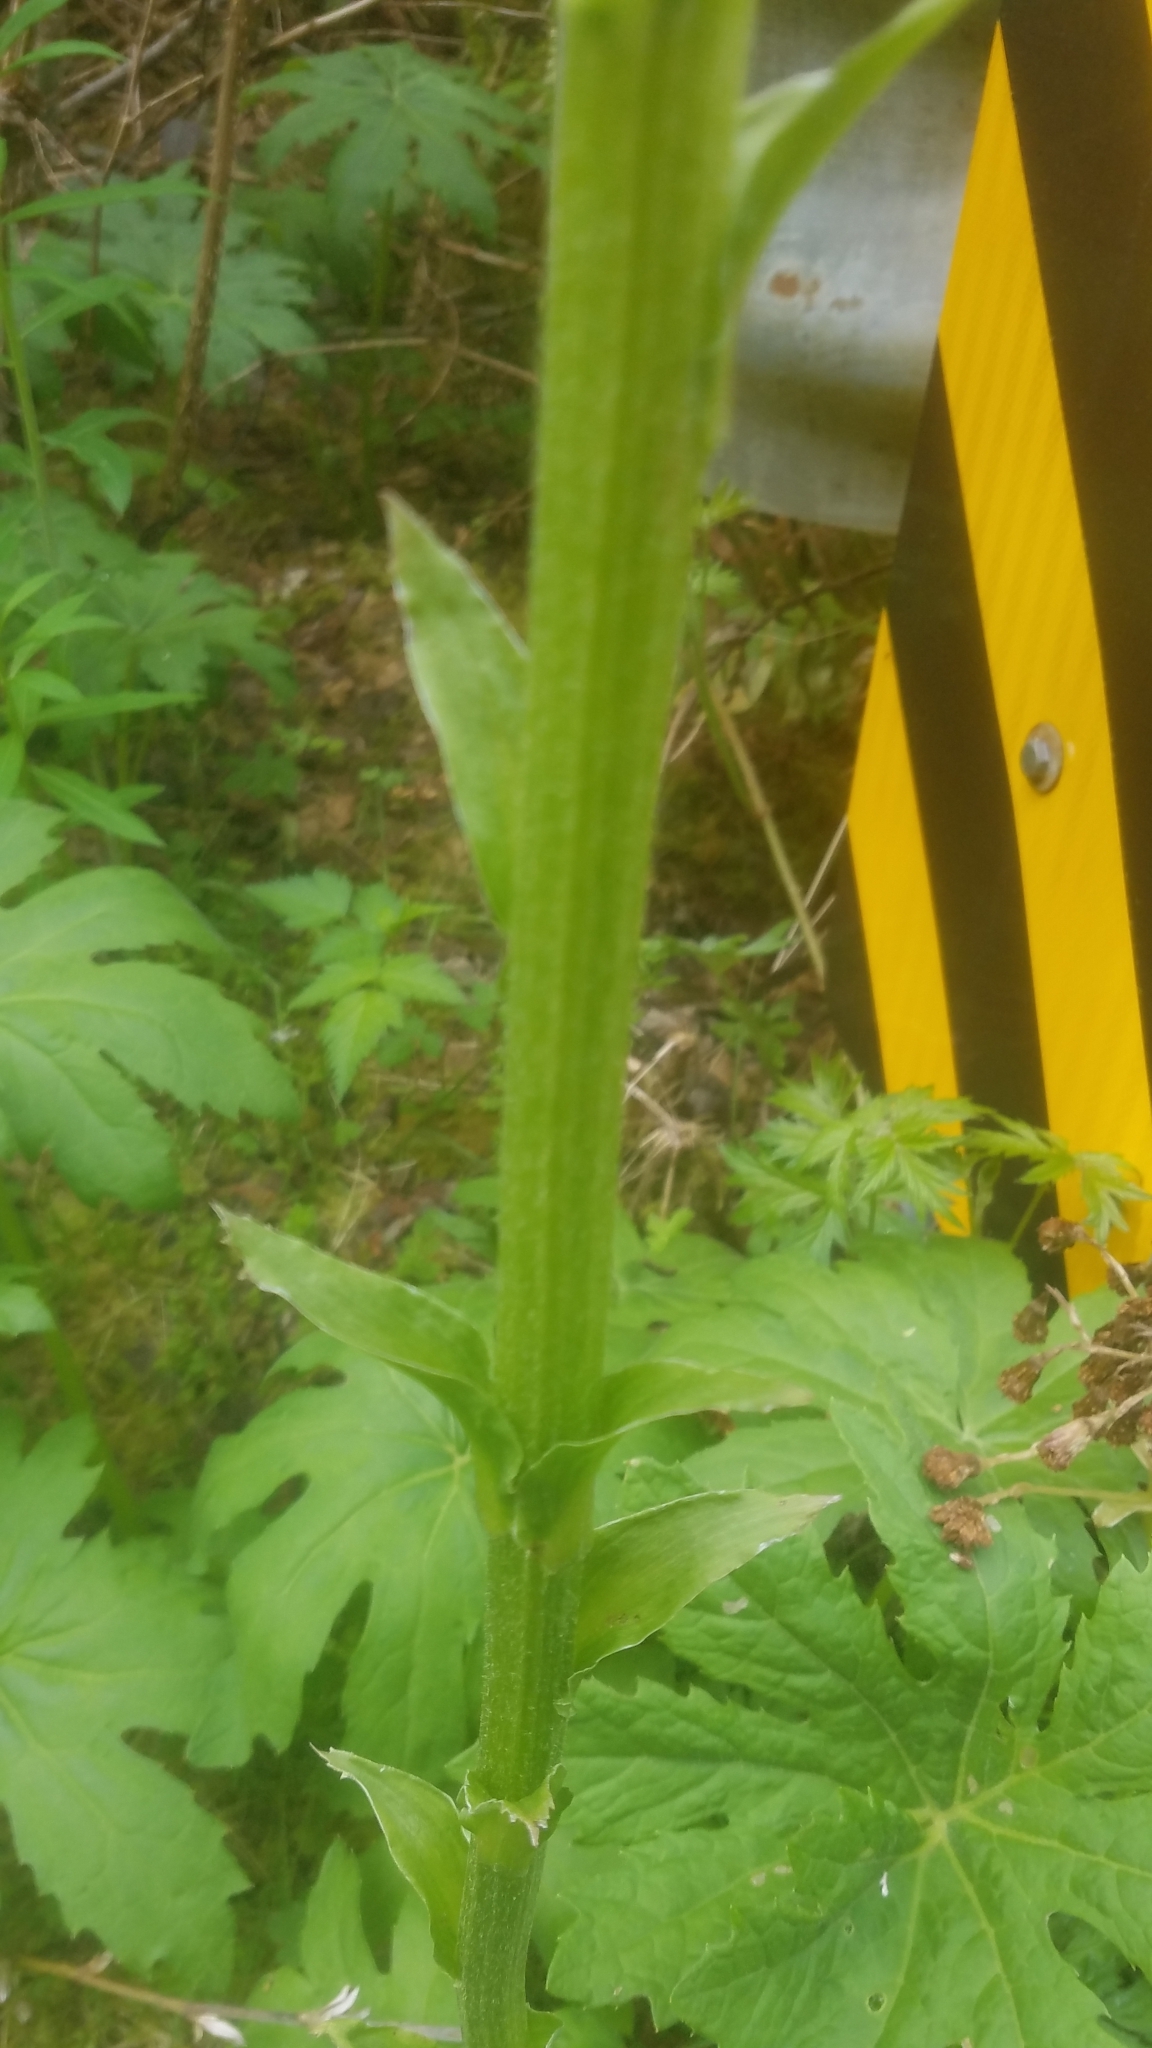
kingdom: Plantae
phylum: Tracheophyta
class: Magnoliopsida
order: Asterales
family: Asteraceae
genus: Petasites
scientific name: Petasites frigidus
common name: Arctic butterbur
